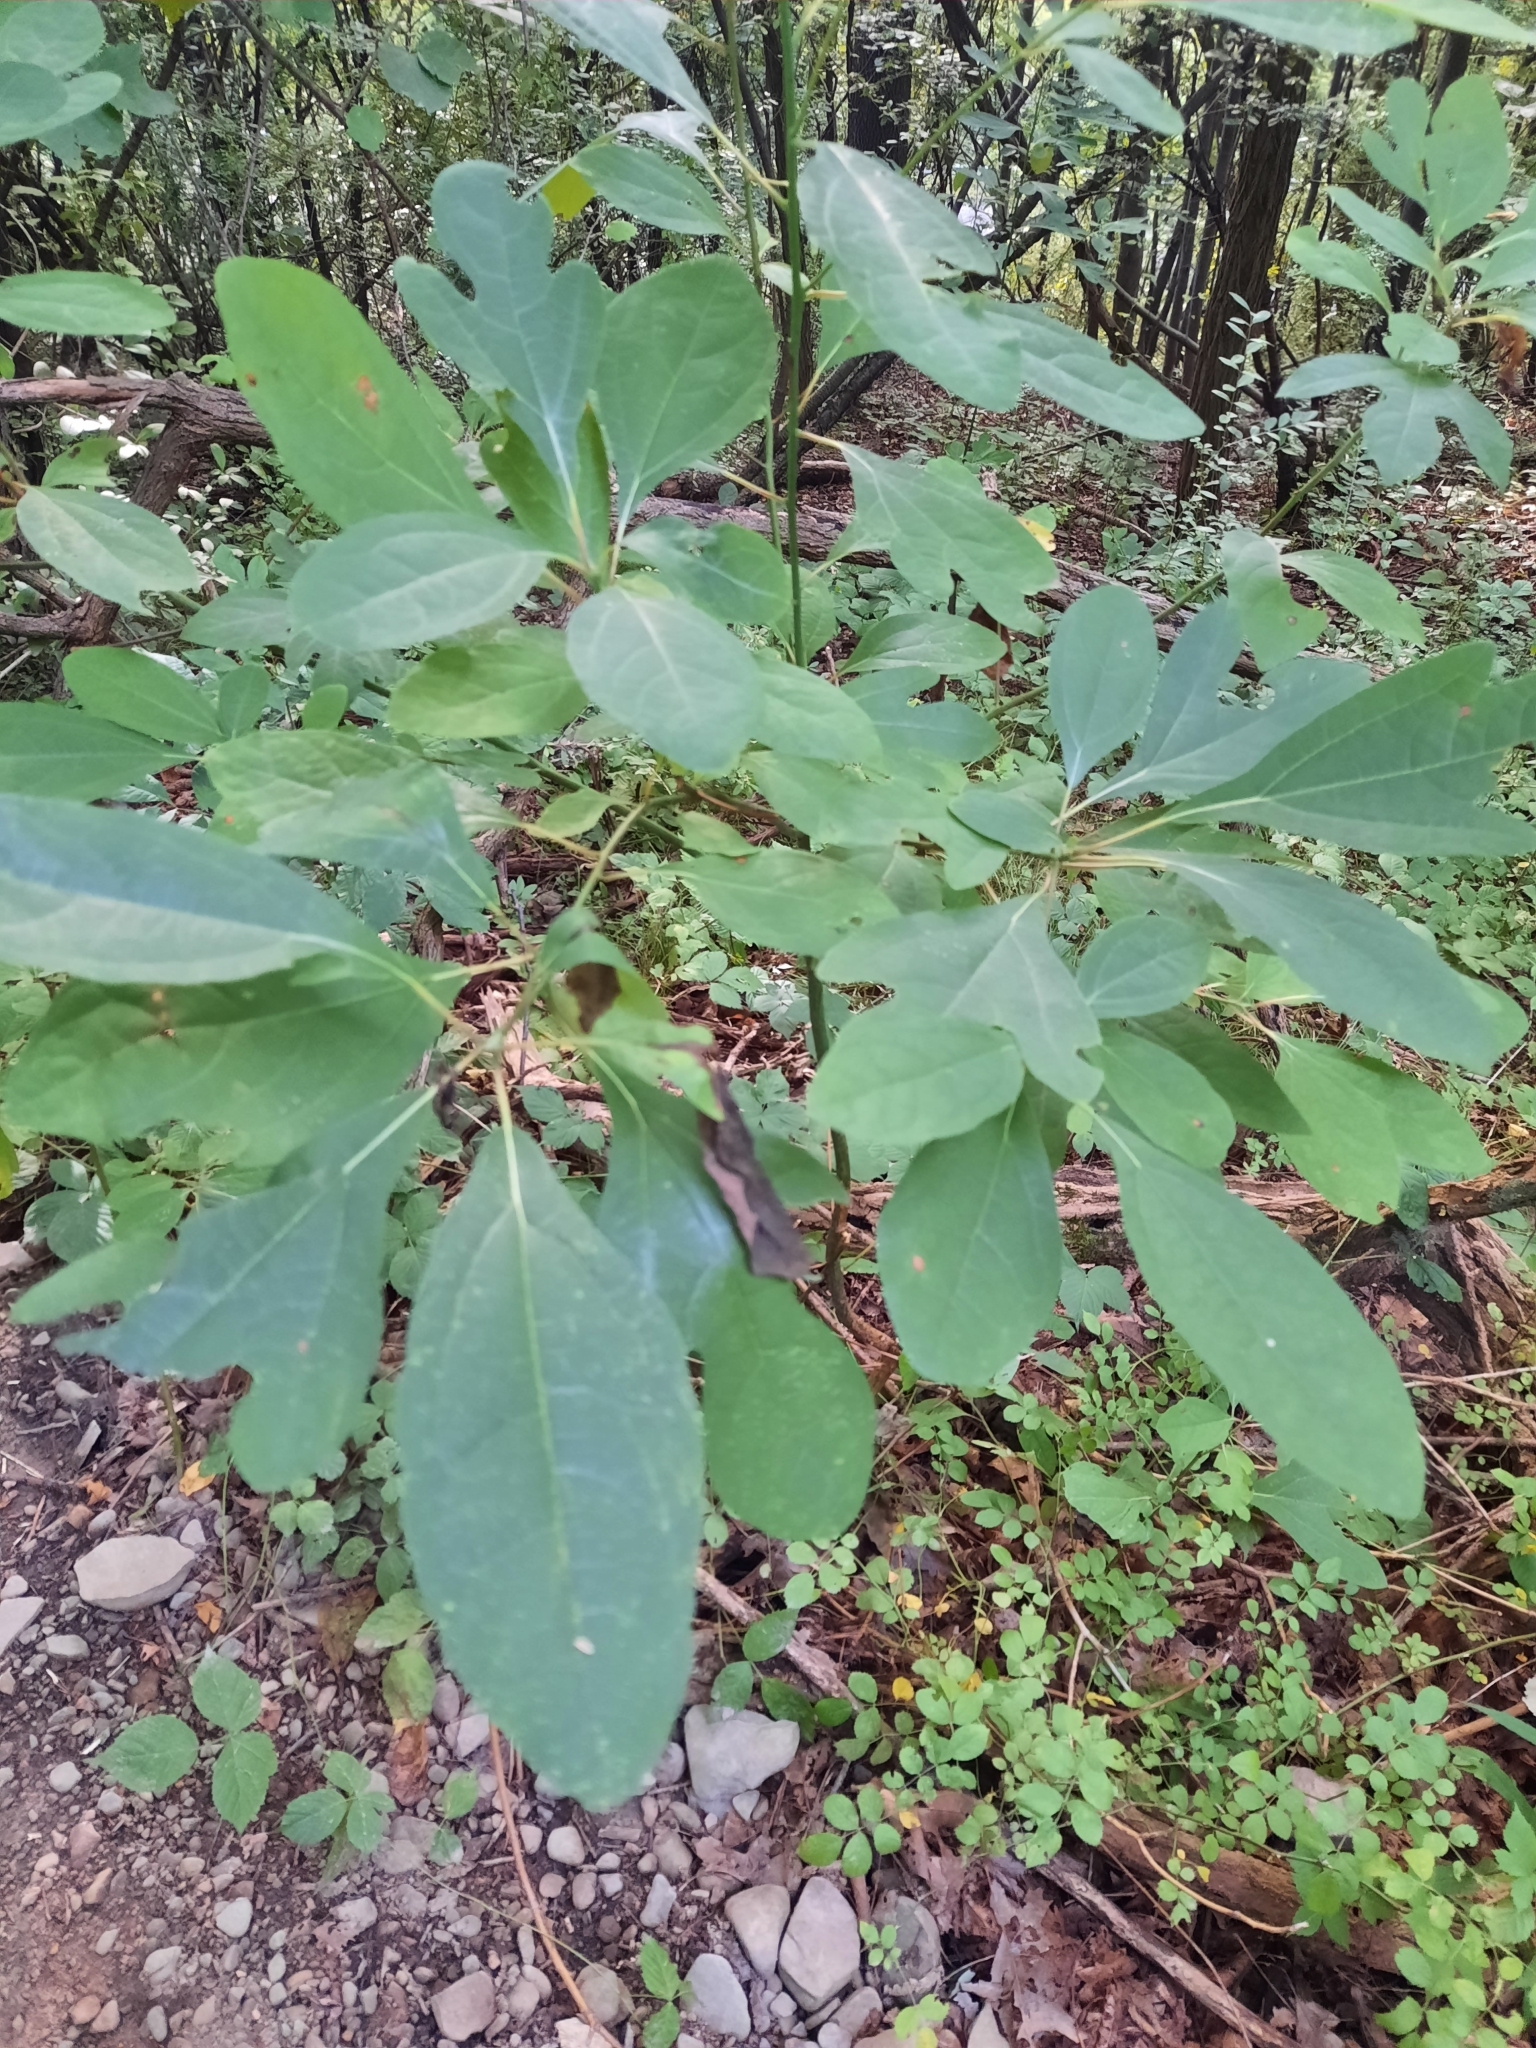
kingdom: Plantae
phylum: Tracheophyta
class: Magnoliopsida
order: Laurales
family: Lauraceae
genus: Sassafras
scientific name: Sassafras albidum
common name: Sassafras
